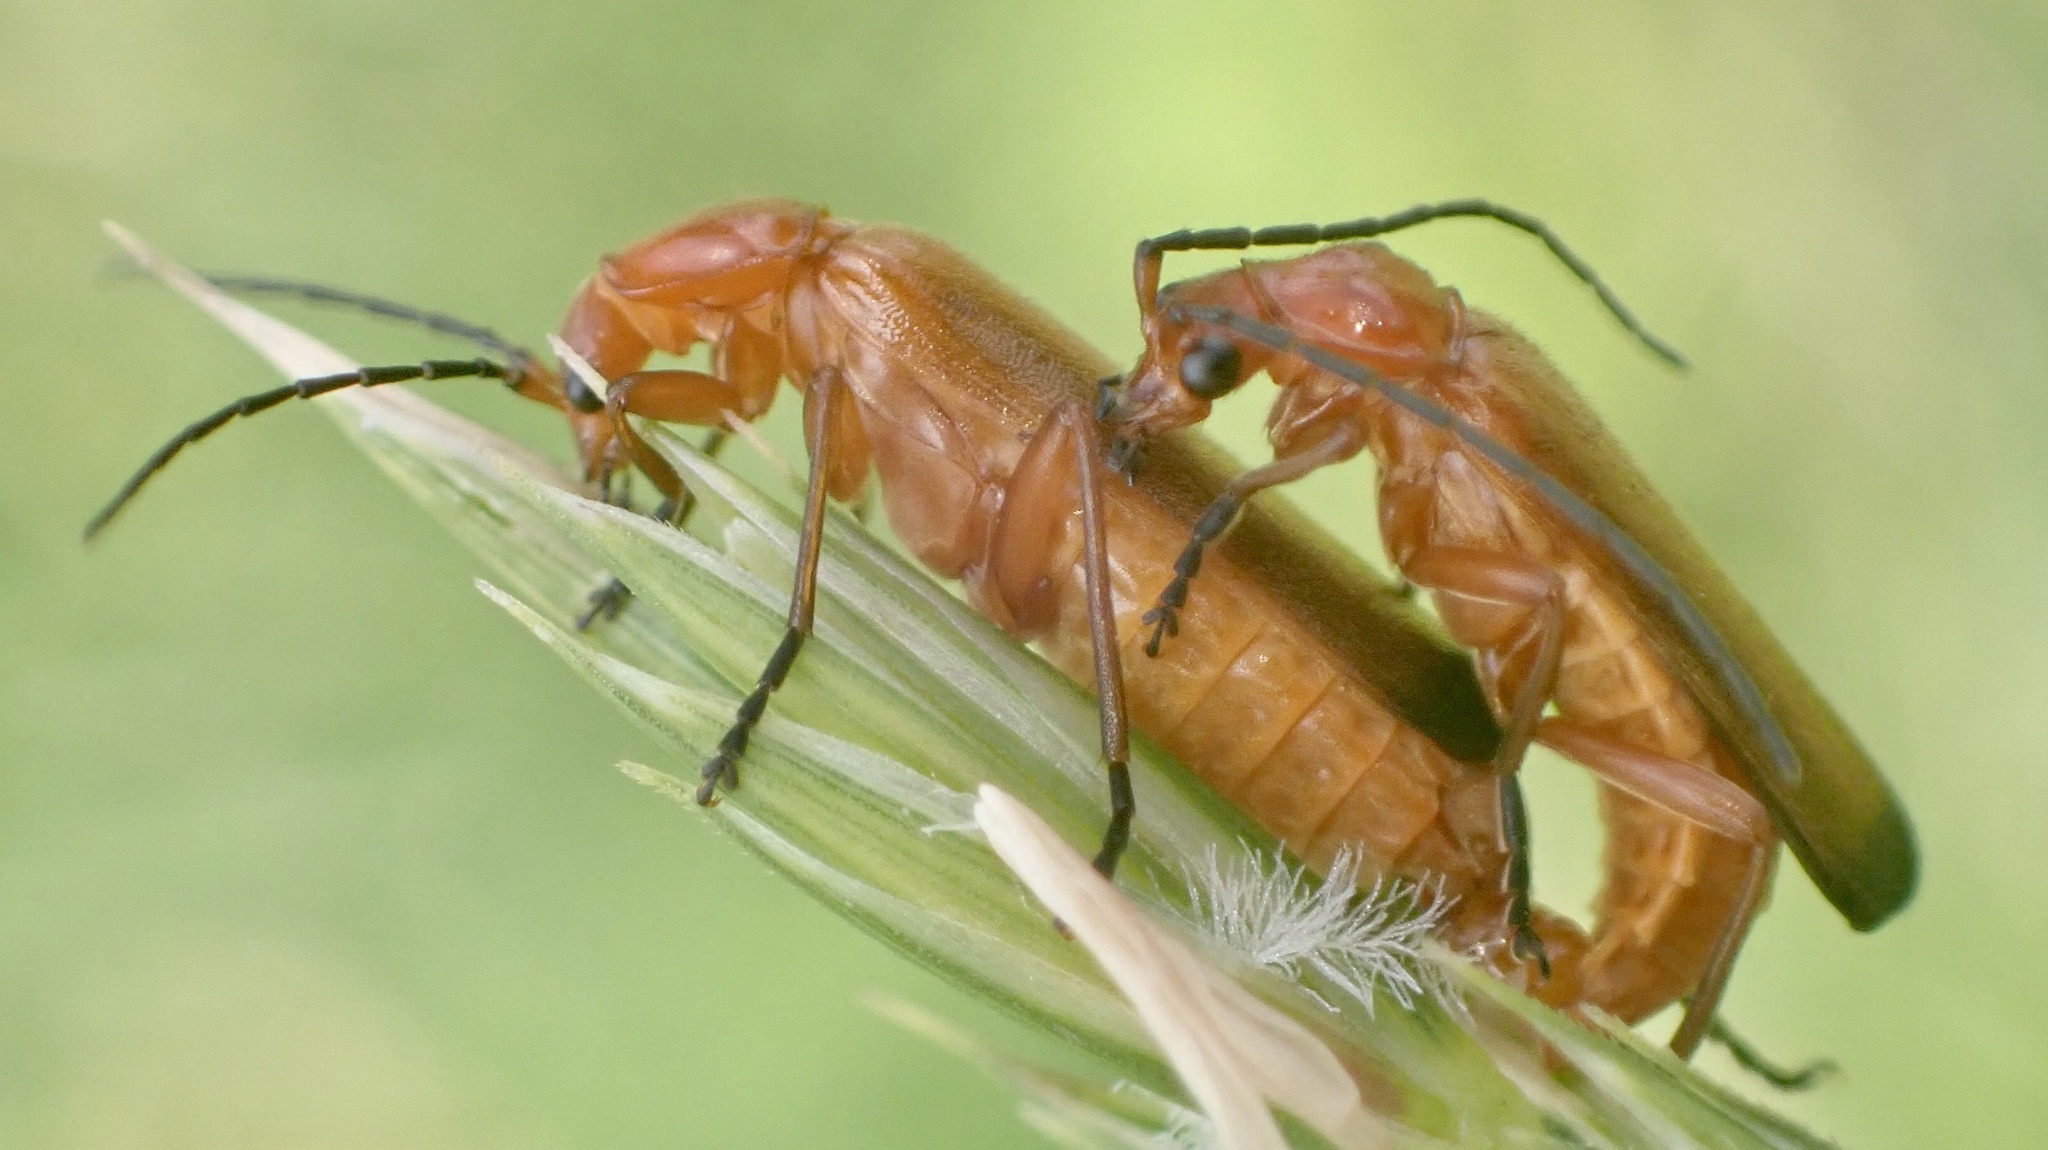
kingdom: Animalia
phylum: Arthropoda
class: Insecta
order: Coleoptera
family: Cantharidae
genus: Rhagonycha
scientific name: Rhagonycha fulva
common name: Common red soldier beetle
